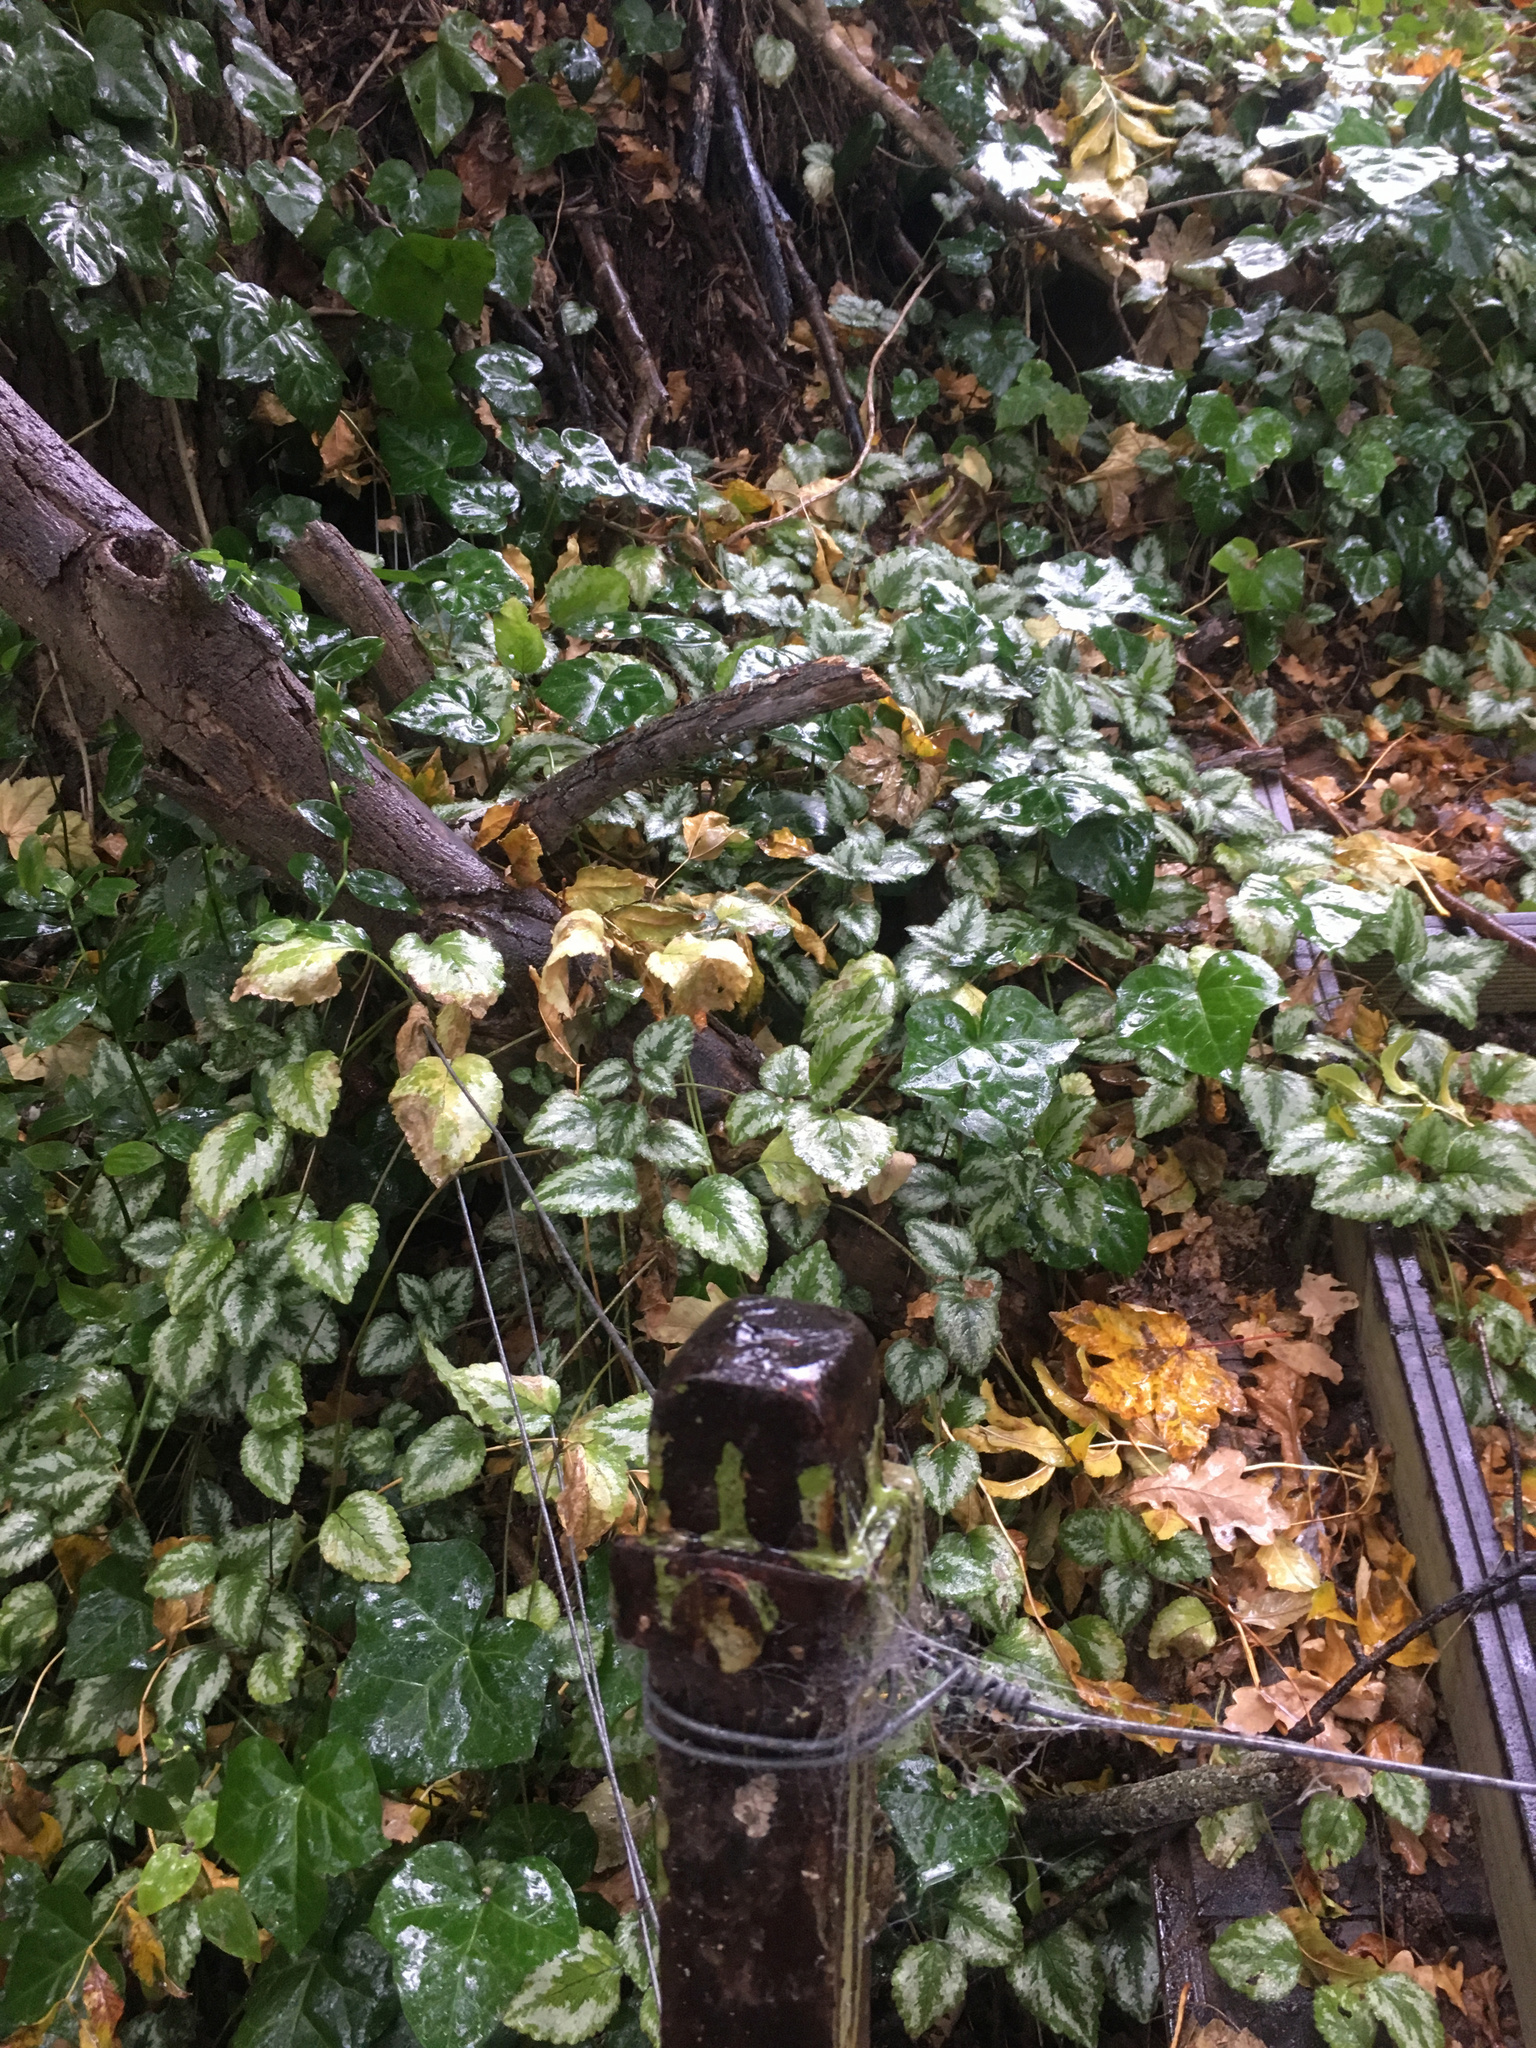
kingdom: Plantae
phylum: Tracheophyta
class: Magnoliopsida
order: Lamiales
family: Lamiaceae
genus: Lamium
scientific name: Lamium galeobdolon
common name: Yellow archangel
